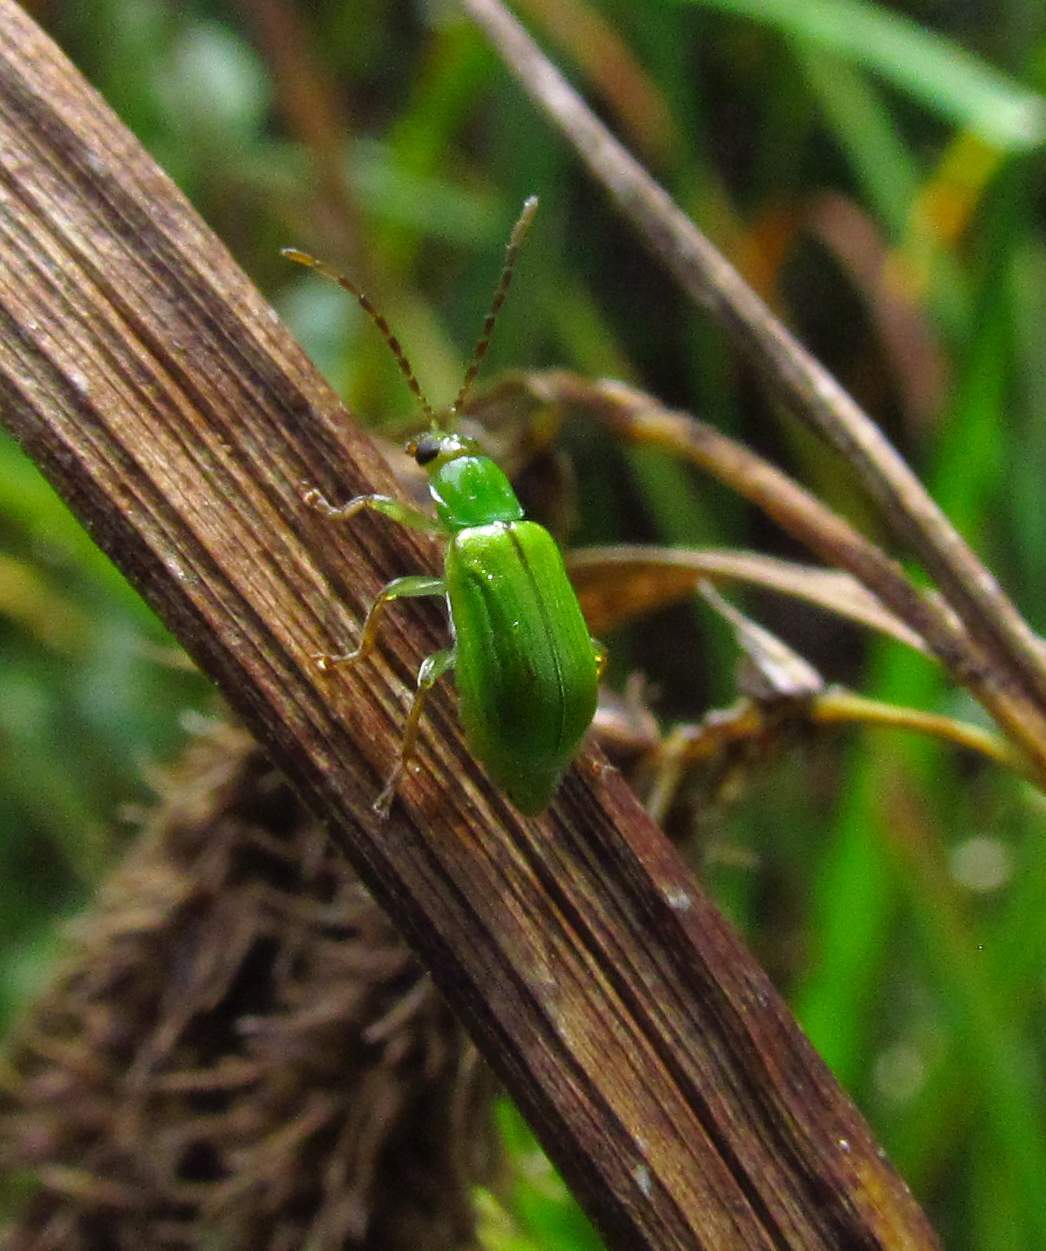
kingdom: Animalia
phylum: Arthropoda
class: Insecta
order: Coleoptera
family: Chrysomelidae
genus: Diabrotica
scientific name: Diabrotica barberi
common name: Northern corn rootworm
